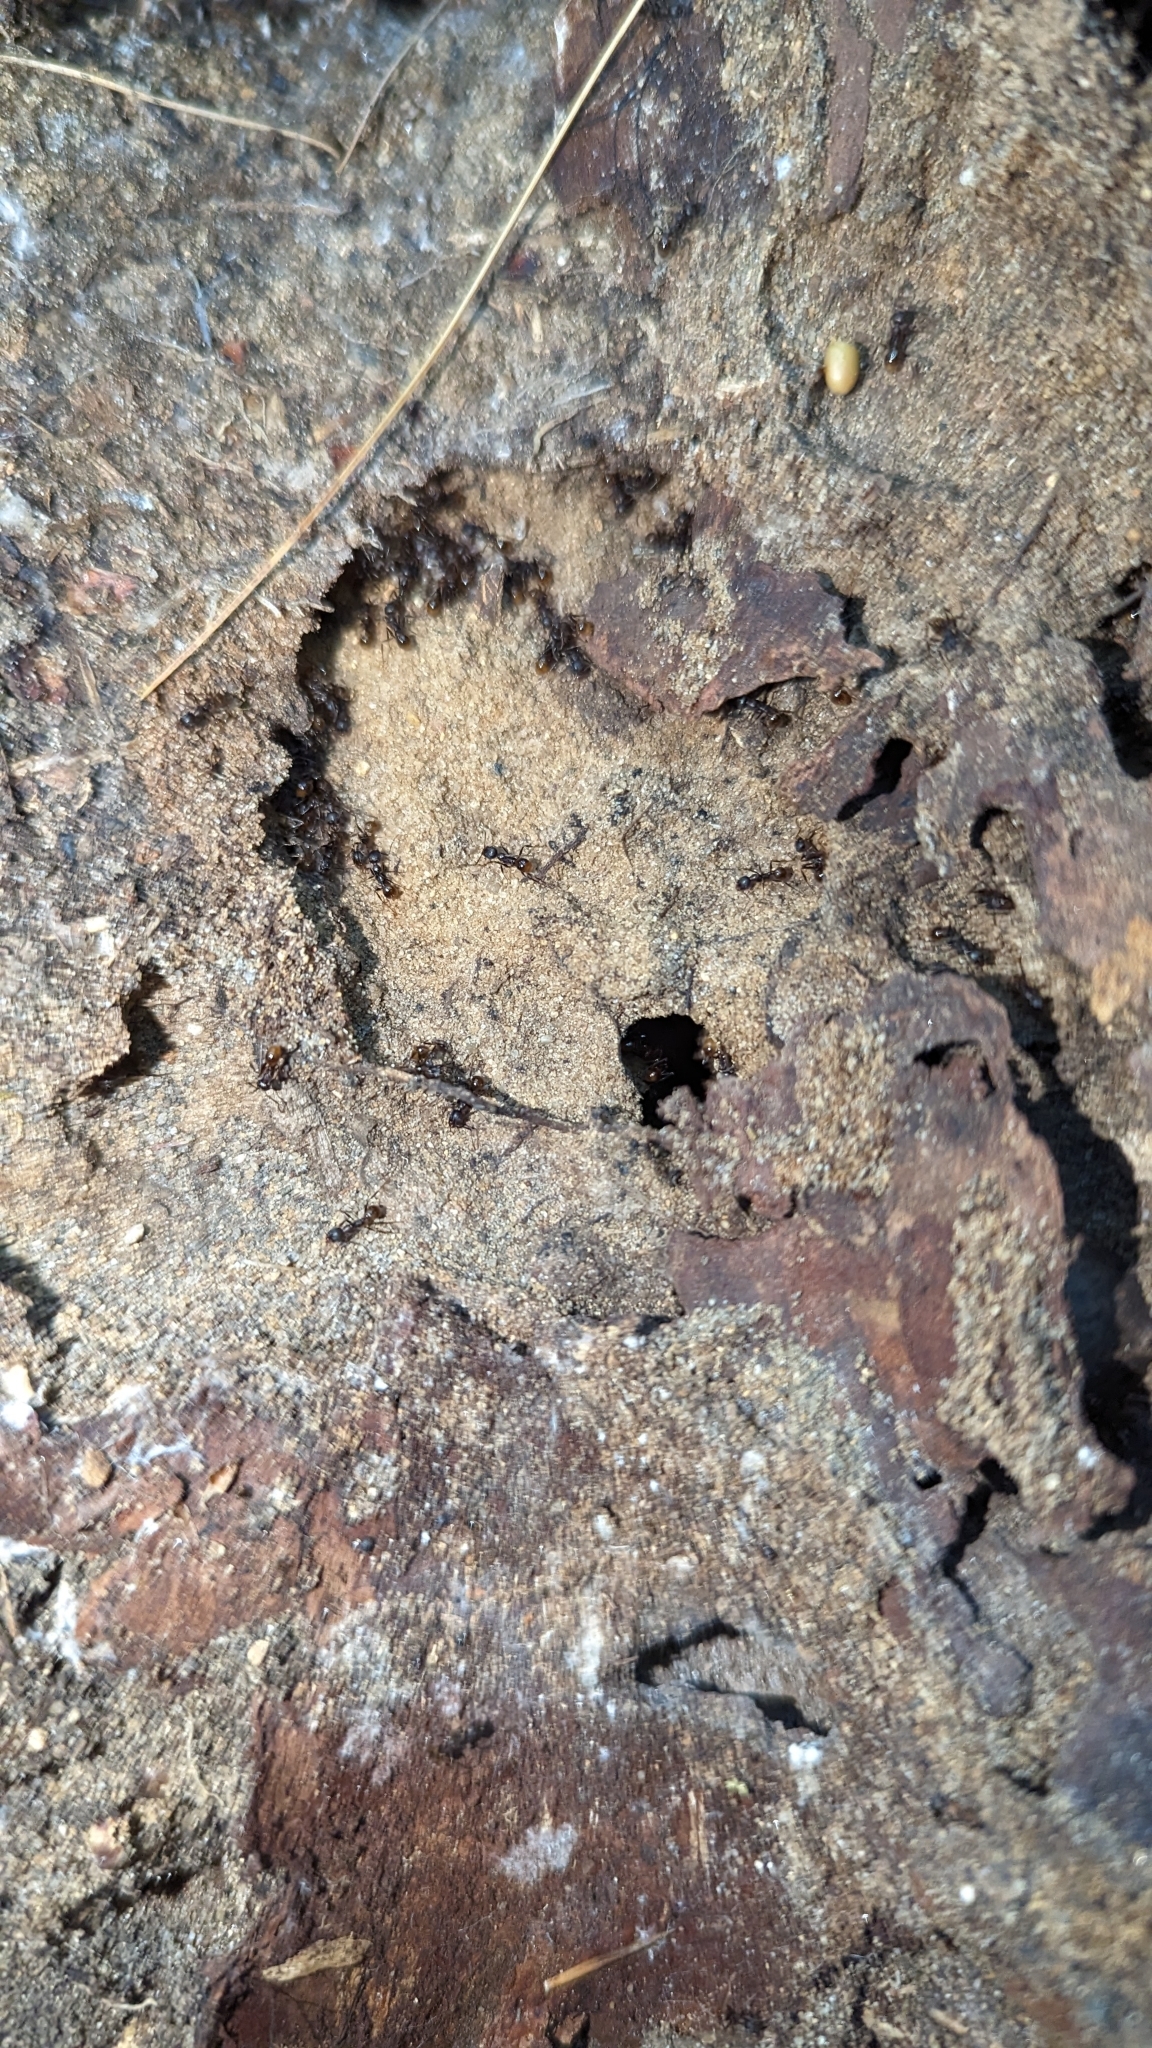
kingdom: Animalia
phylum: Arthropoda
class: Insecta
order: Hymenoptera
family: Formicidae
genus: Aphaenogaster
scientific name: Aphaenogaster fulva
